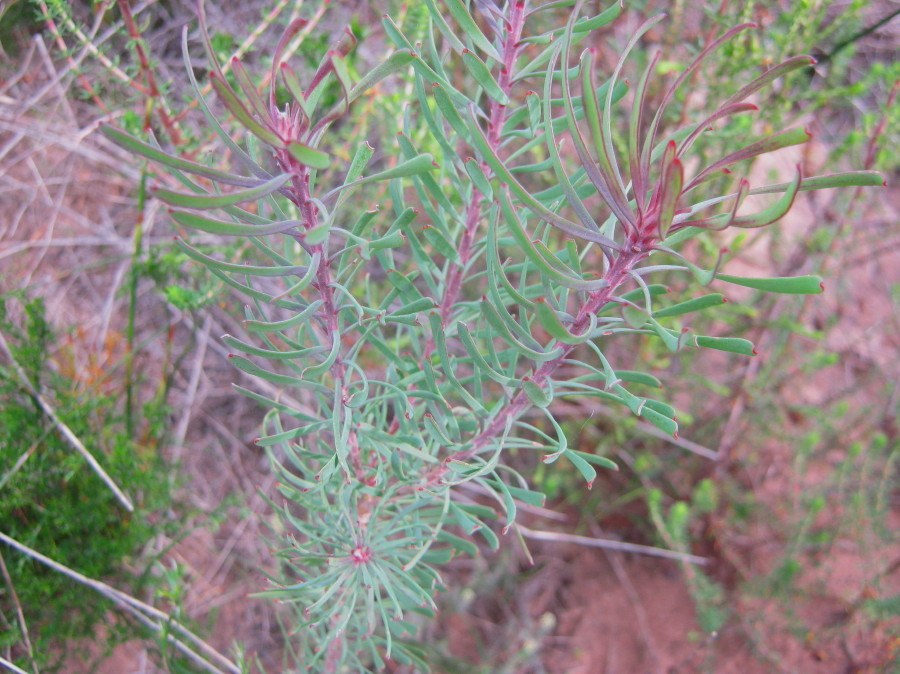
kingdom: Plantae
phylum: Tracheophyta
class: Magnoliopsida
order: Proteales
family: Proteaceae
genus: Leucadendron
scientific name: Leucadendron galpinii
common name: Hairless conebush
